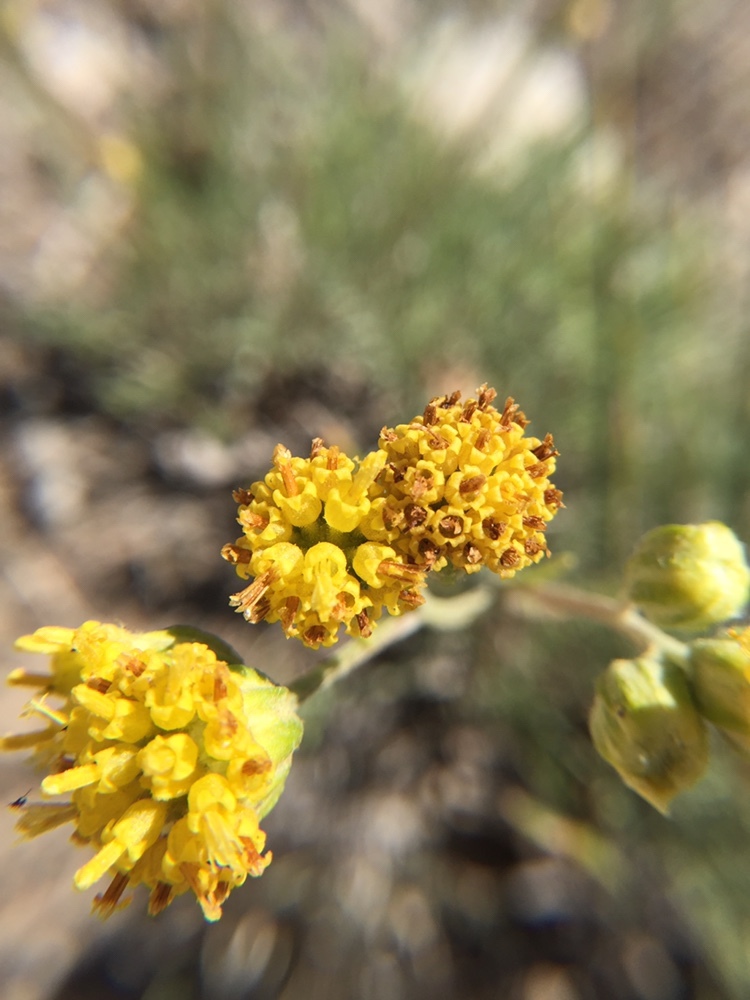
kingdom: Plantae
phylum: Tracheophyta
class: Magnoliopsida
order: Asterales
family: Asteraceae
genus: Thelesperma
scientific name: Thelesperma megapotamicum
